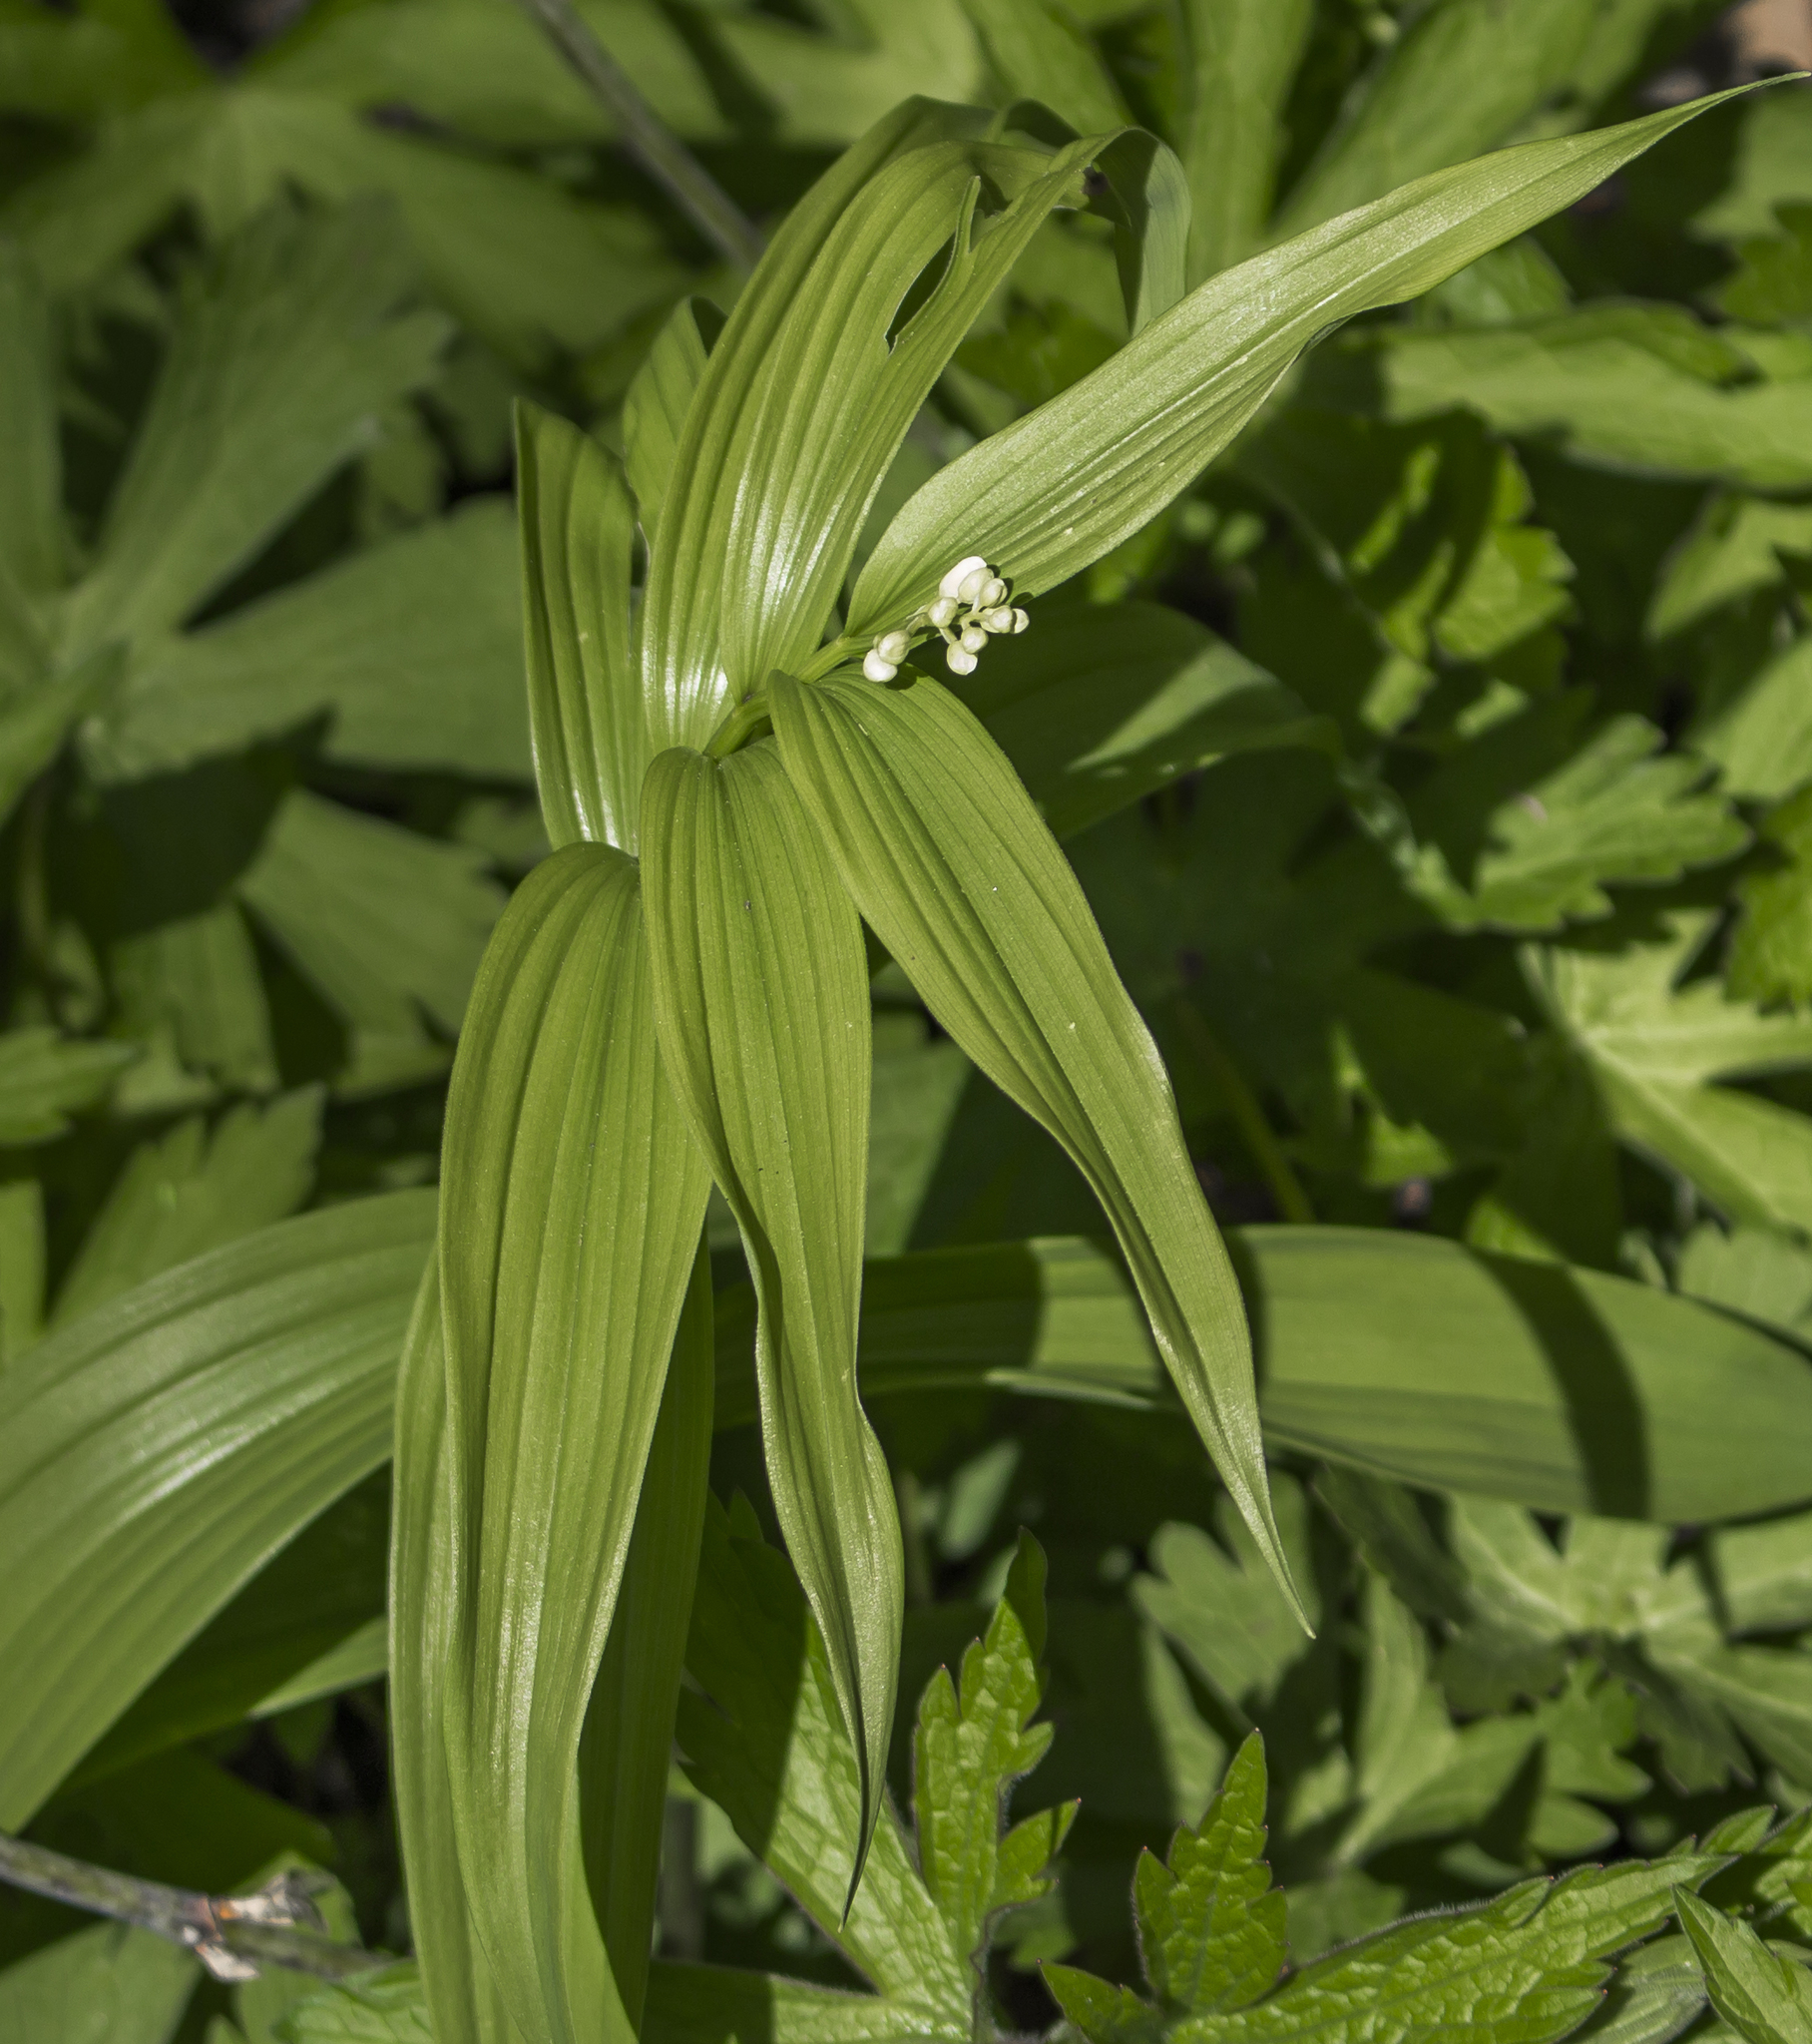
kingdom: Plantae
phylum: Tracheophyta
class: Liliopsida
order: Asparagales
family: Asparagaceae
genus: Maianthemum
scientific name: Maianthemum stellatum
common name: Little false solomon's seal
